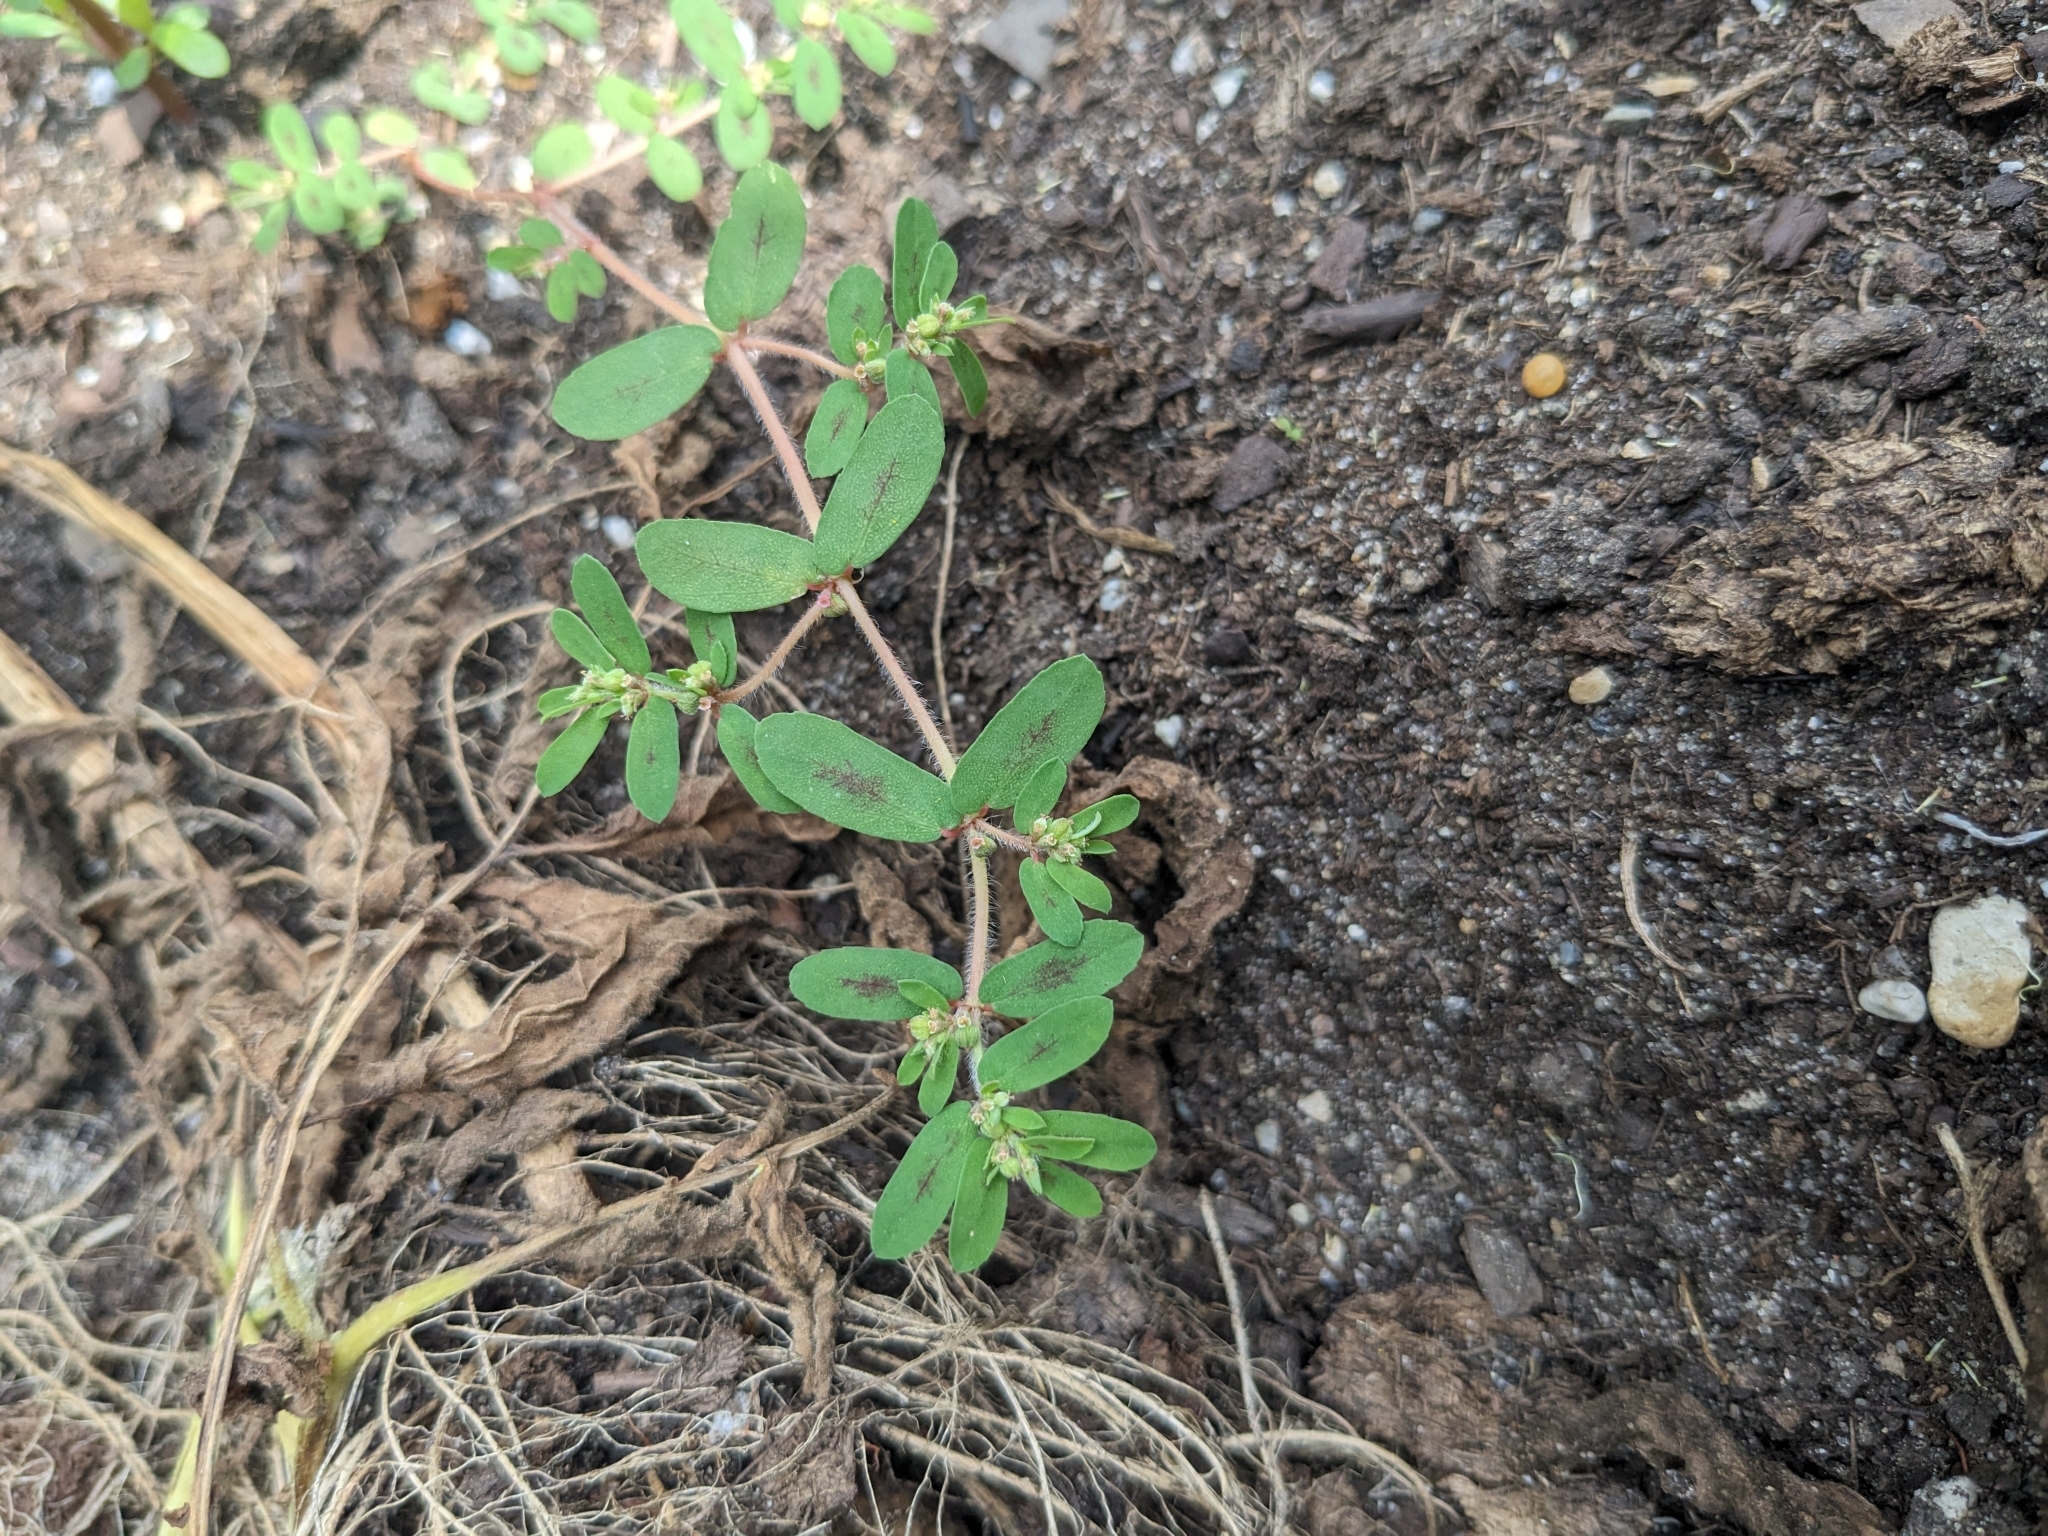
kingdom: Plantae
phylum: Tracheophyta
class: Magnoliopsida
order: Malpighiales
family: Euphorbiaceae
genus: Euphorbia
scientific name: Euphorbia maculata
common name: Spotted spurge
